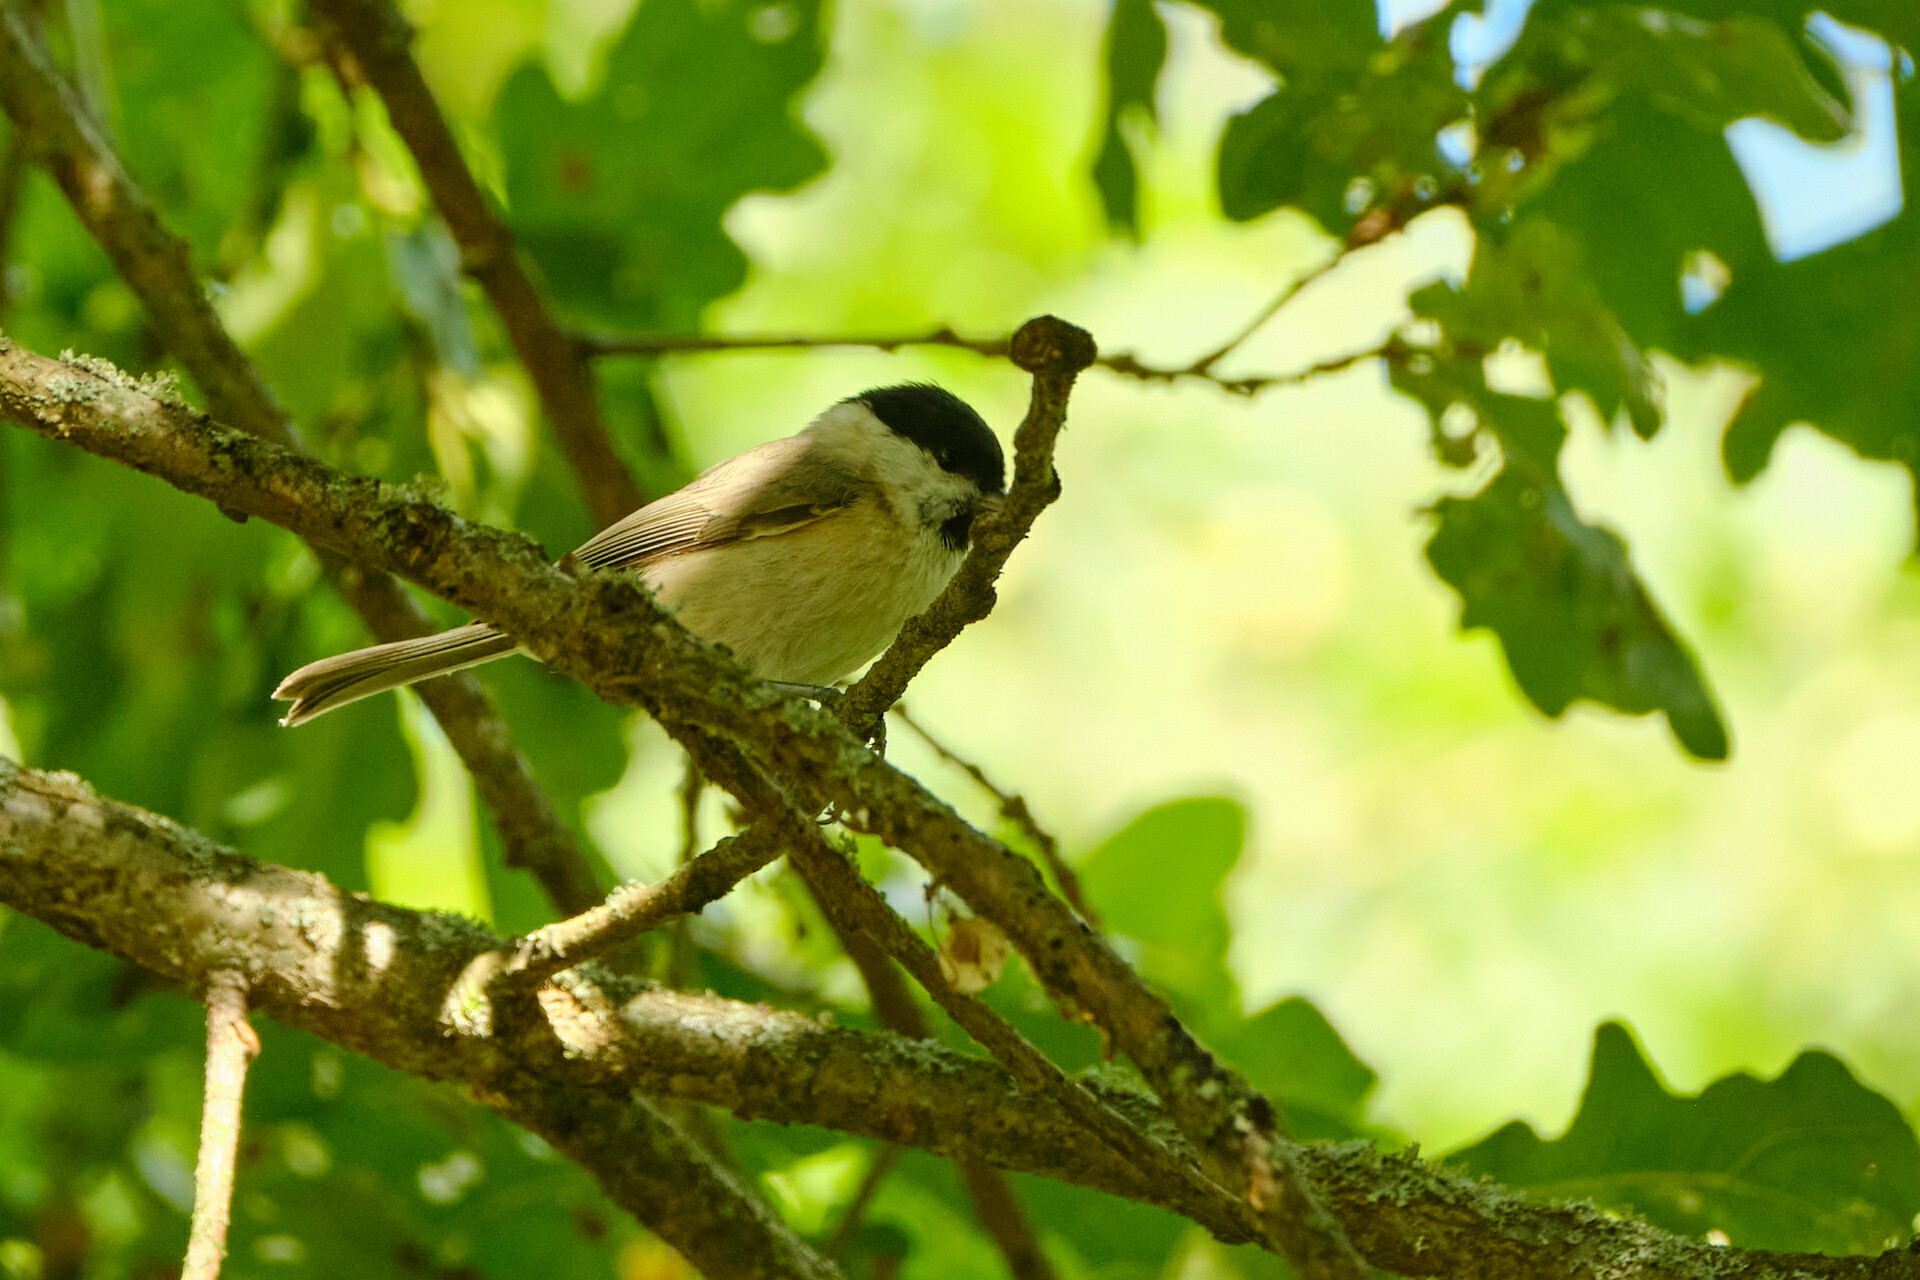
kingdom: Animalia
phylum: Chordata
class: Aves
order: Passeriformes
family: Paridae
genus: Poecile
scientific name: Poecile palustris
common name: Marsh tit
